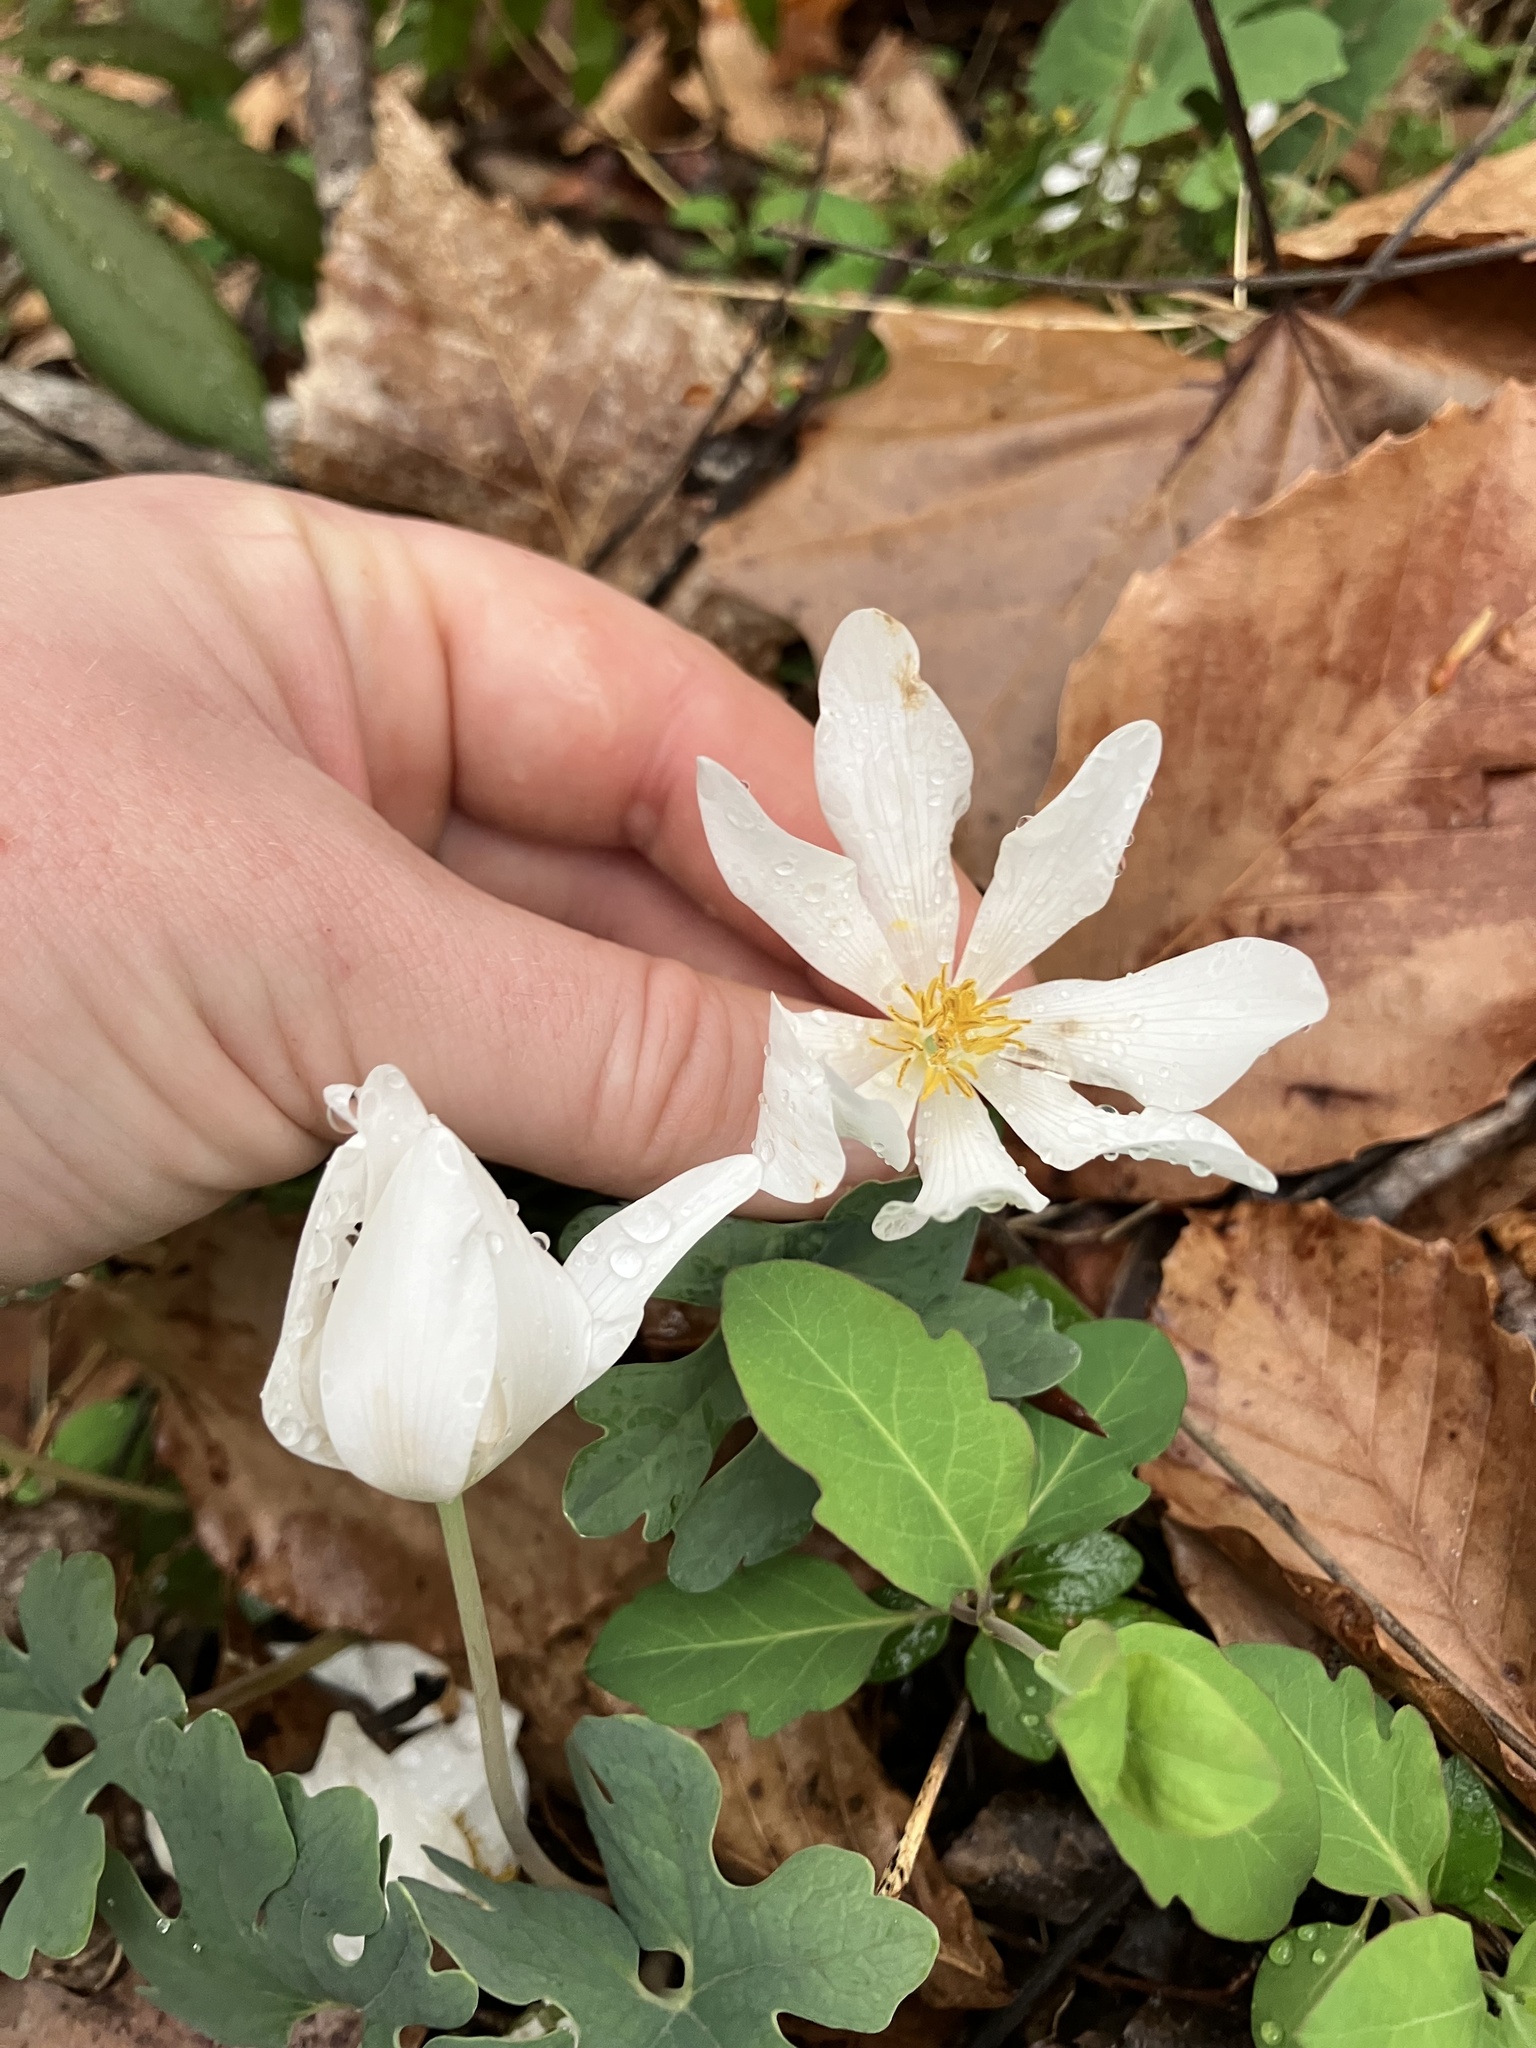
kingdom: Plantae
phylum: Tracheophyta
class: Magnoliopsida
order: Ranunculales
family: Papaveraceae
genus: Sanguinaria
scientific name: Sanguinaria canadensis
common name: Bloodroot
